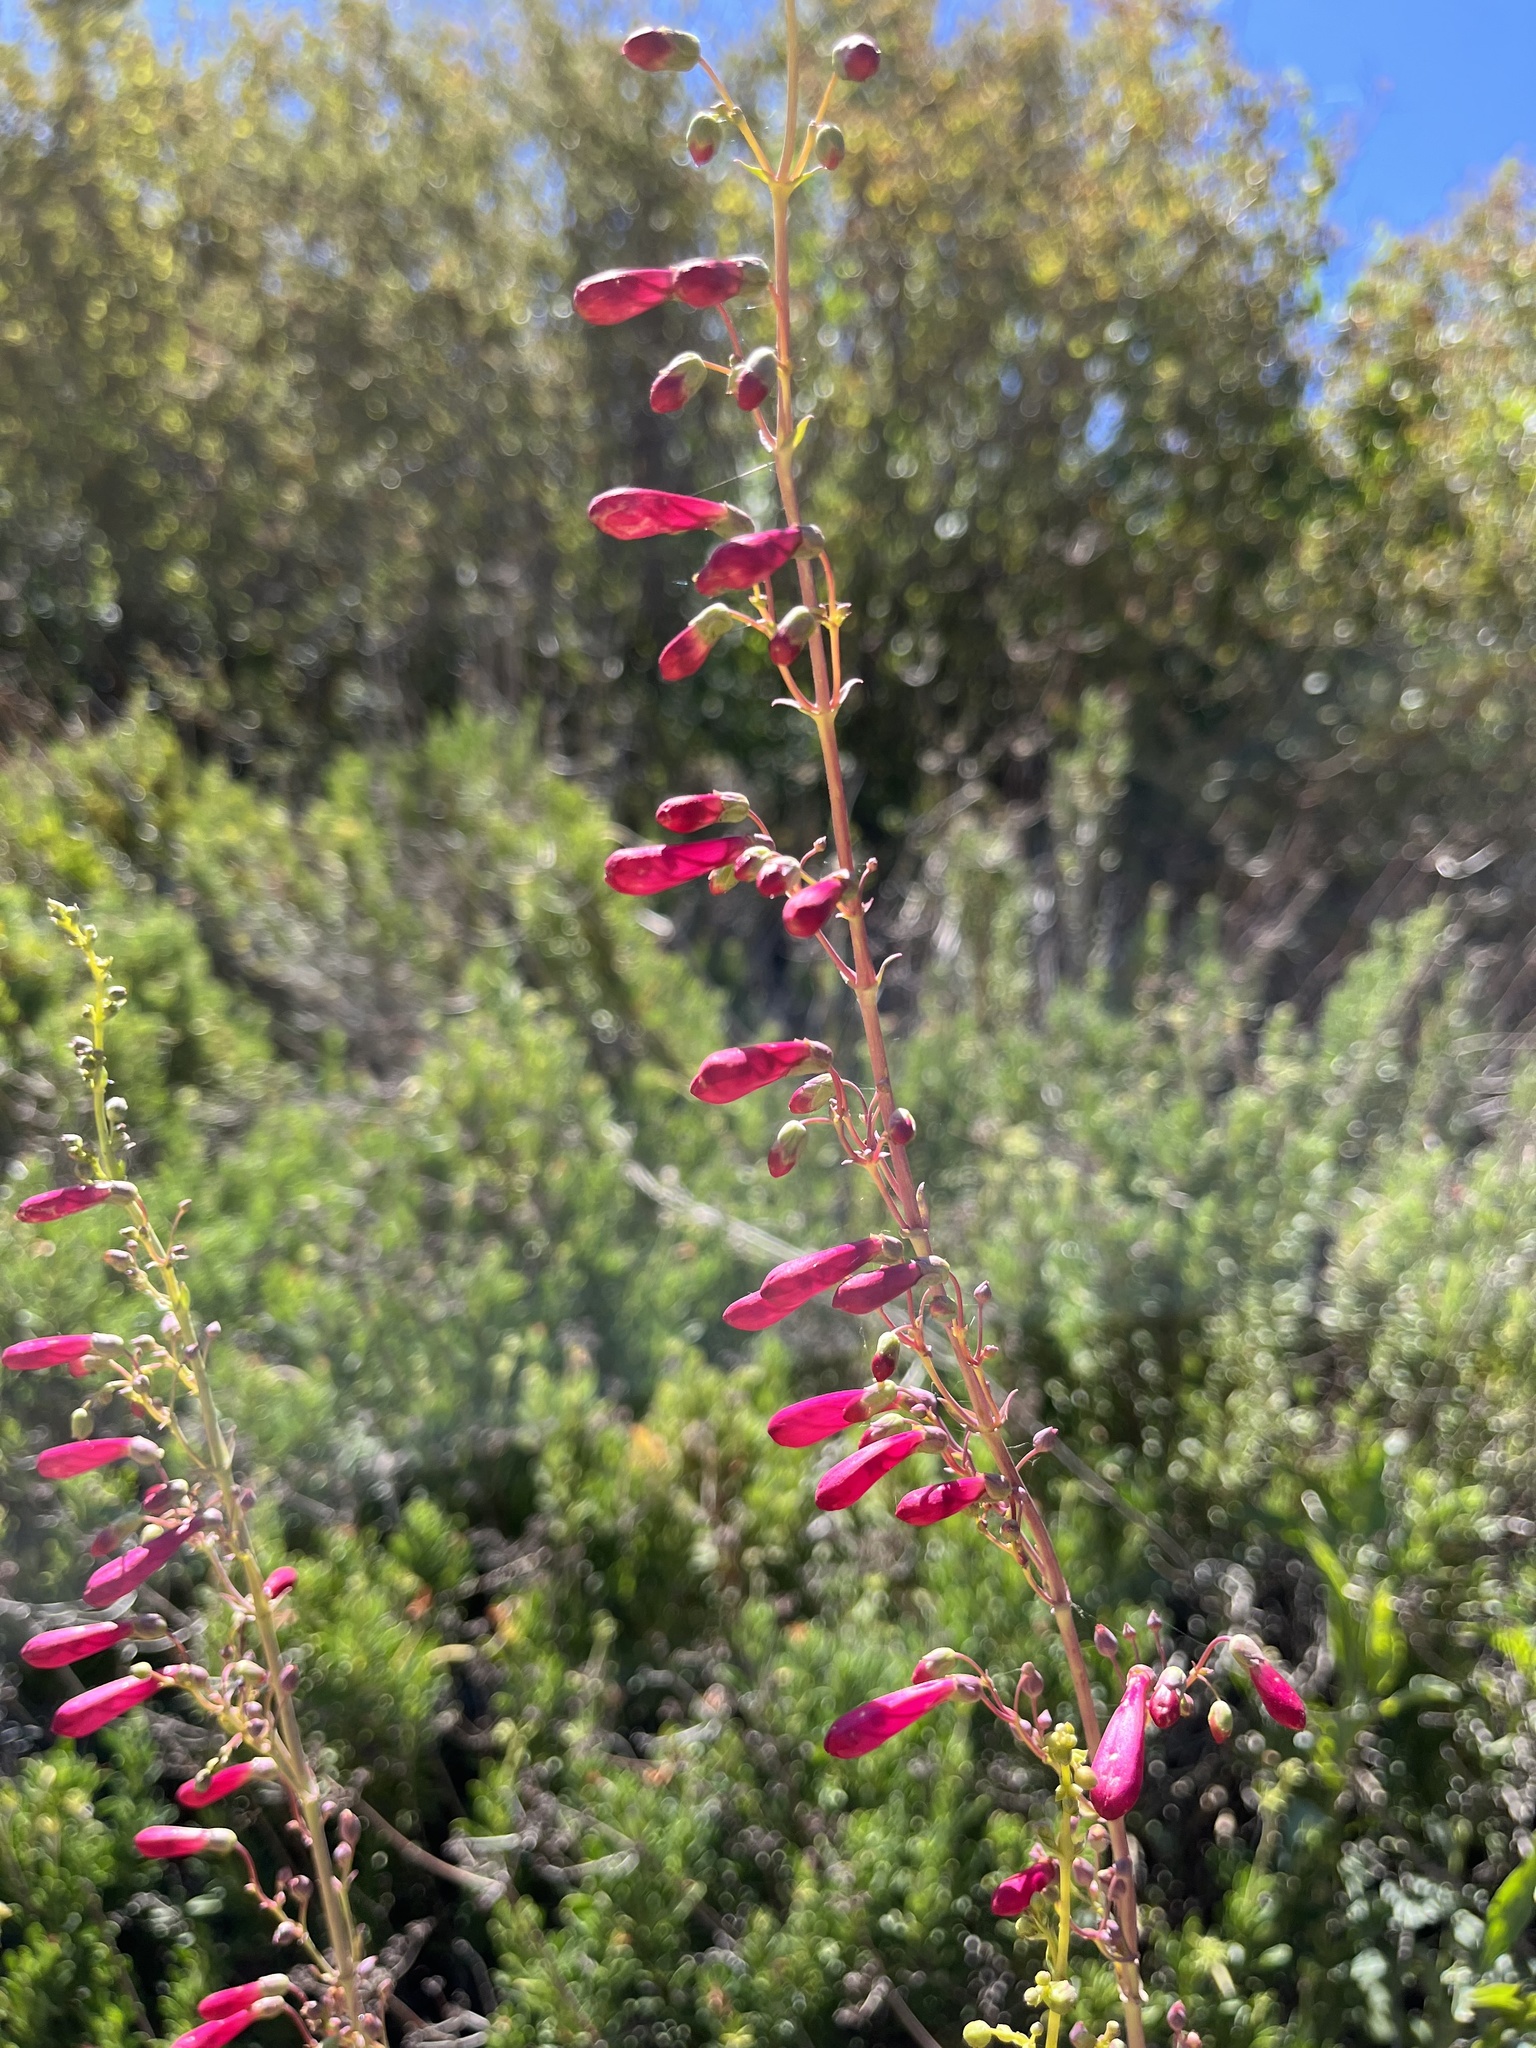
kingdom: Plantae
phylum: Tracheophyta
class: Magnoliopsida
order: Lamiales
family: Plantaginaceae
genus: Penstemon
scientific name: Penstemon centranthifolius
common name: Scarlet bugler
